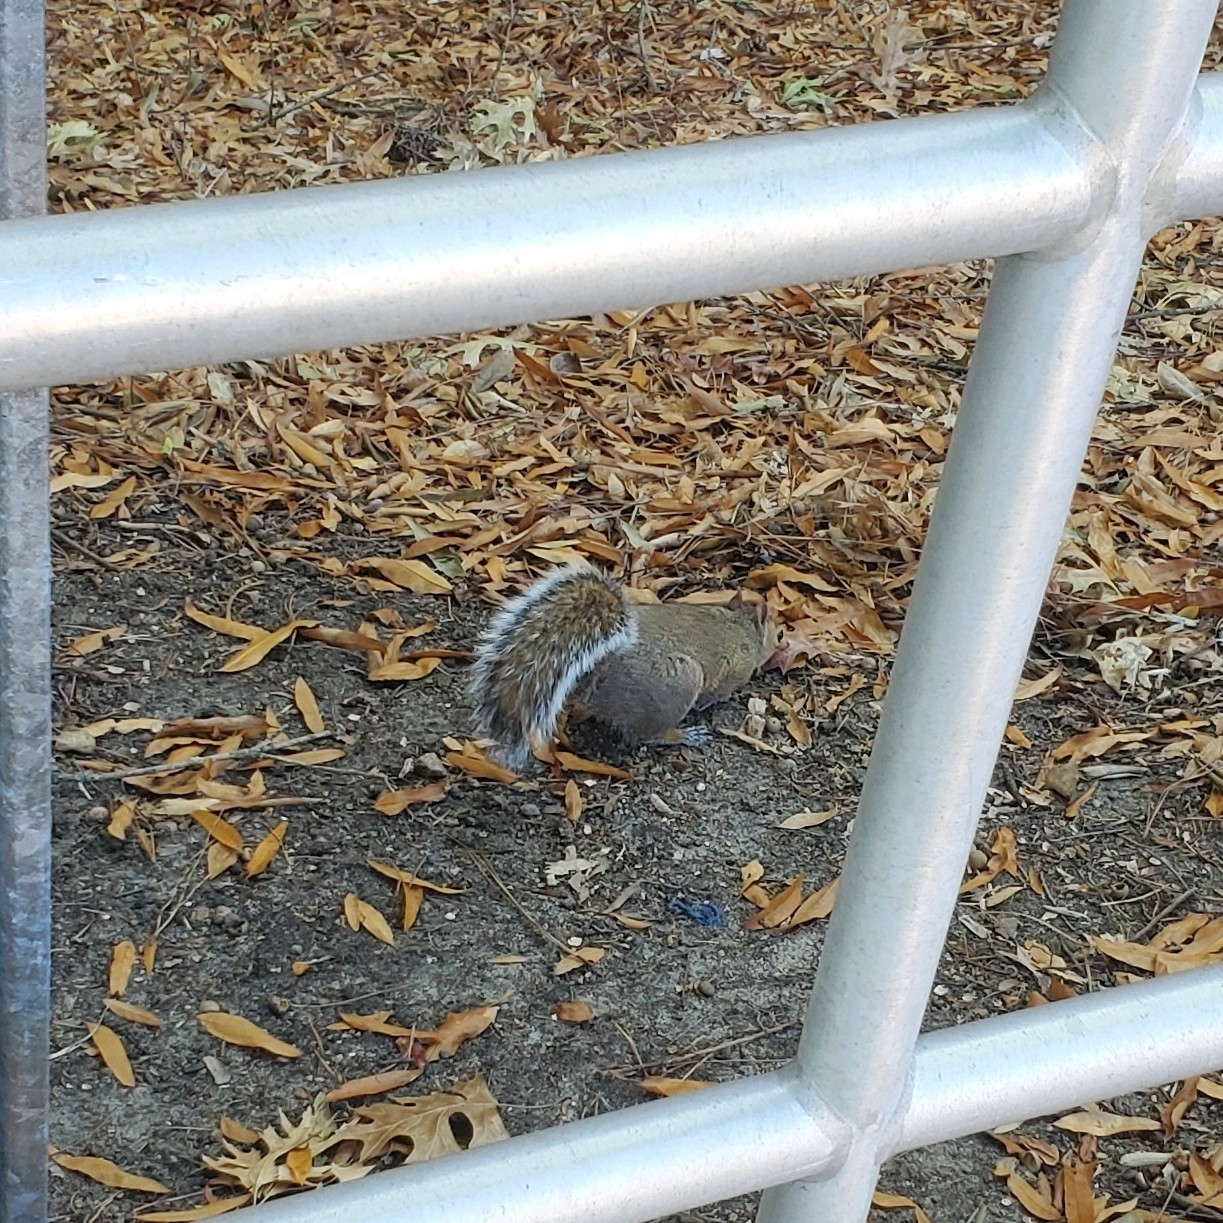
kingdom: Animalia
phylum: Chordata
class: Mammalia
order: Rodentia
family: Sciuridae
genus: Sciurus
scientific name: Sciurus carolinensis
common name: Eastern gray squirrel
